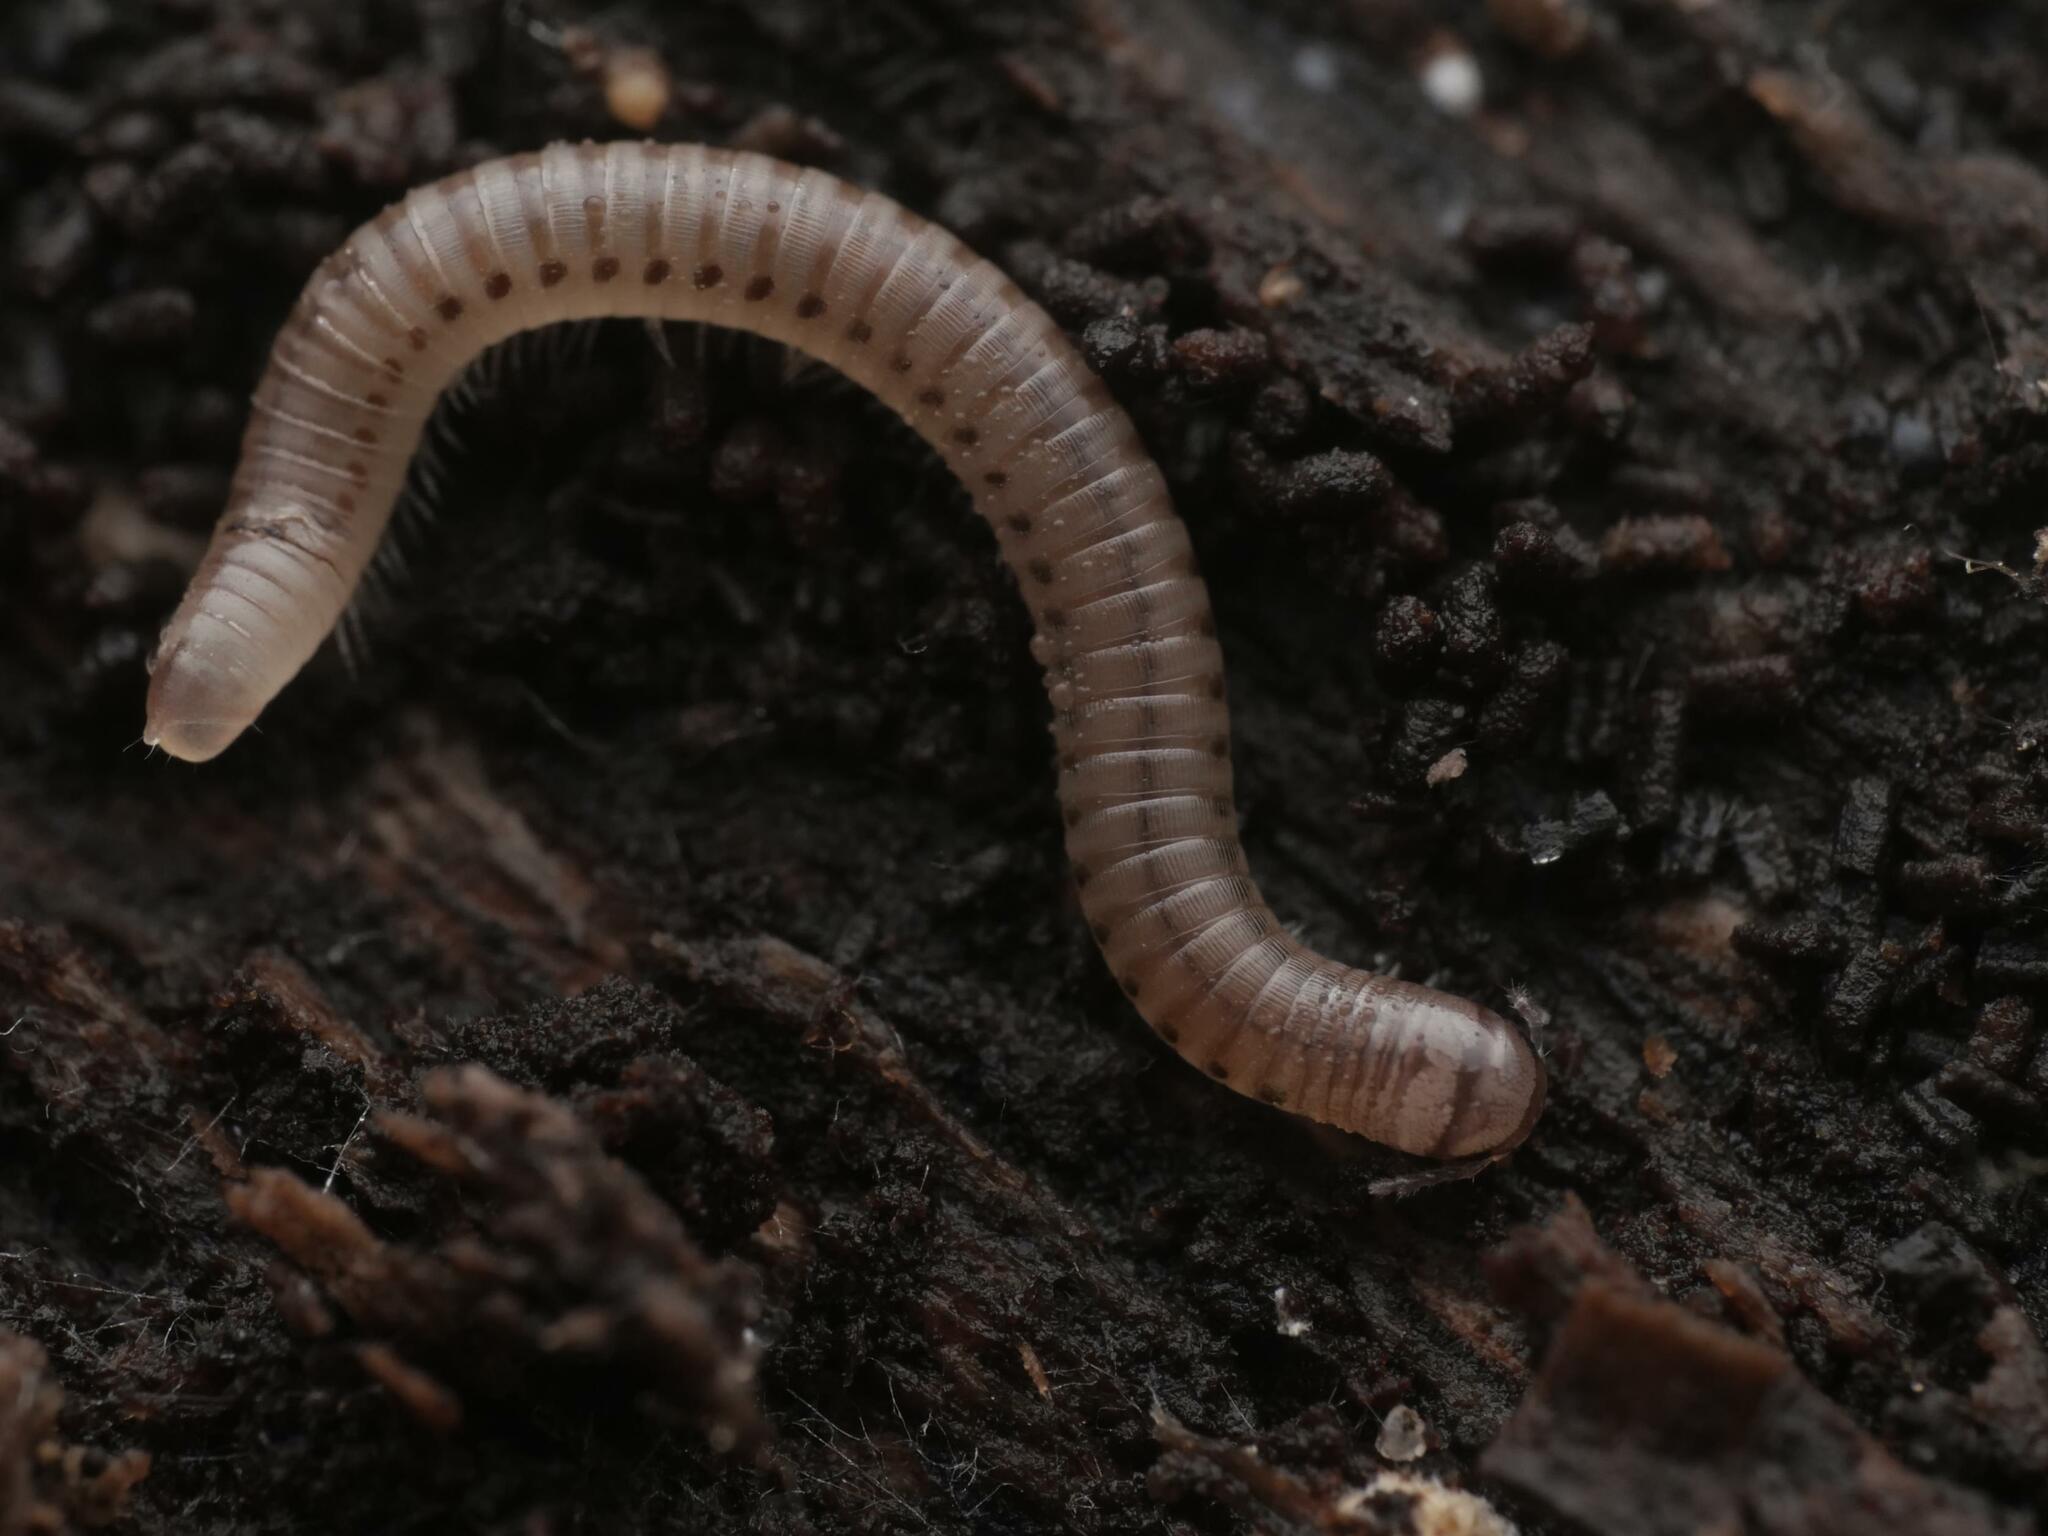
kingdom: Animalia
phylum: Arthropoda
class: Diplopoda
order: Julida
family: Julidae
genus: Cylindroiulus
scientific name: Cylindroiulus punctatus
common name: Blunt-tailed millipede
